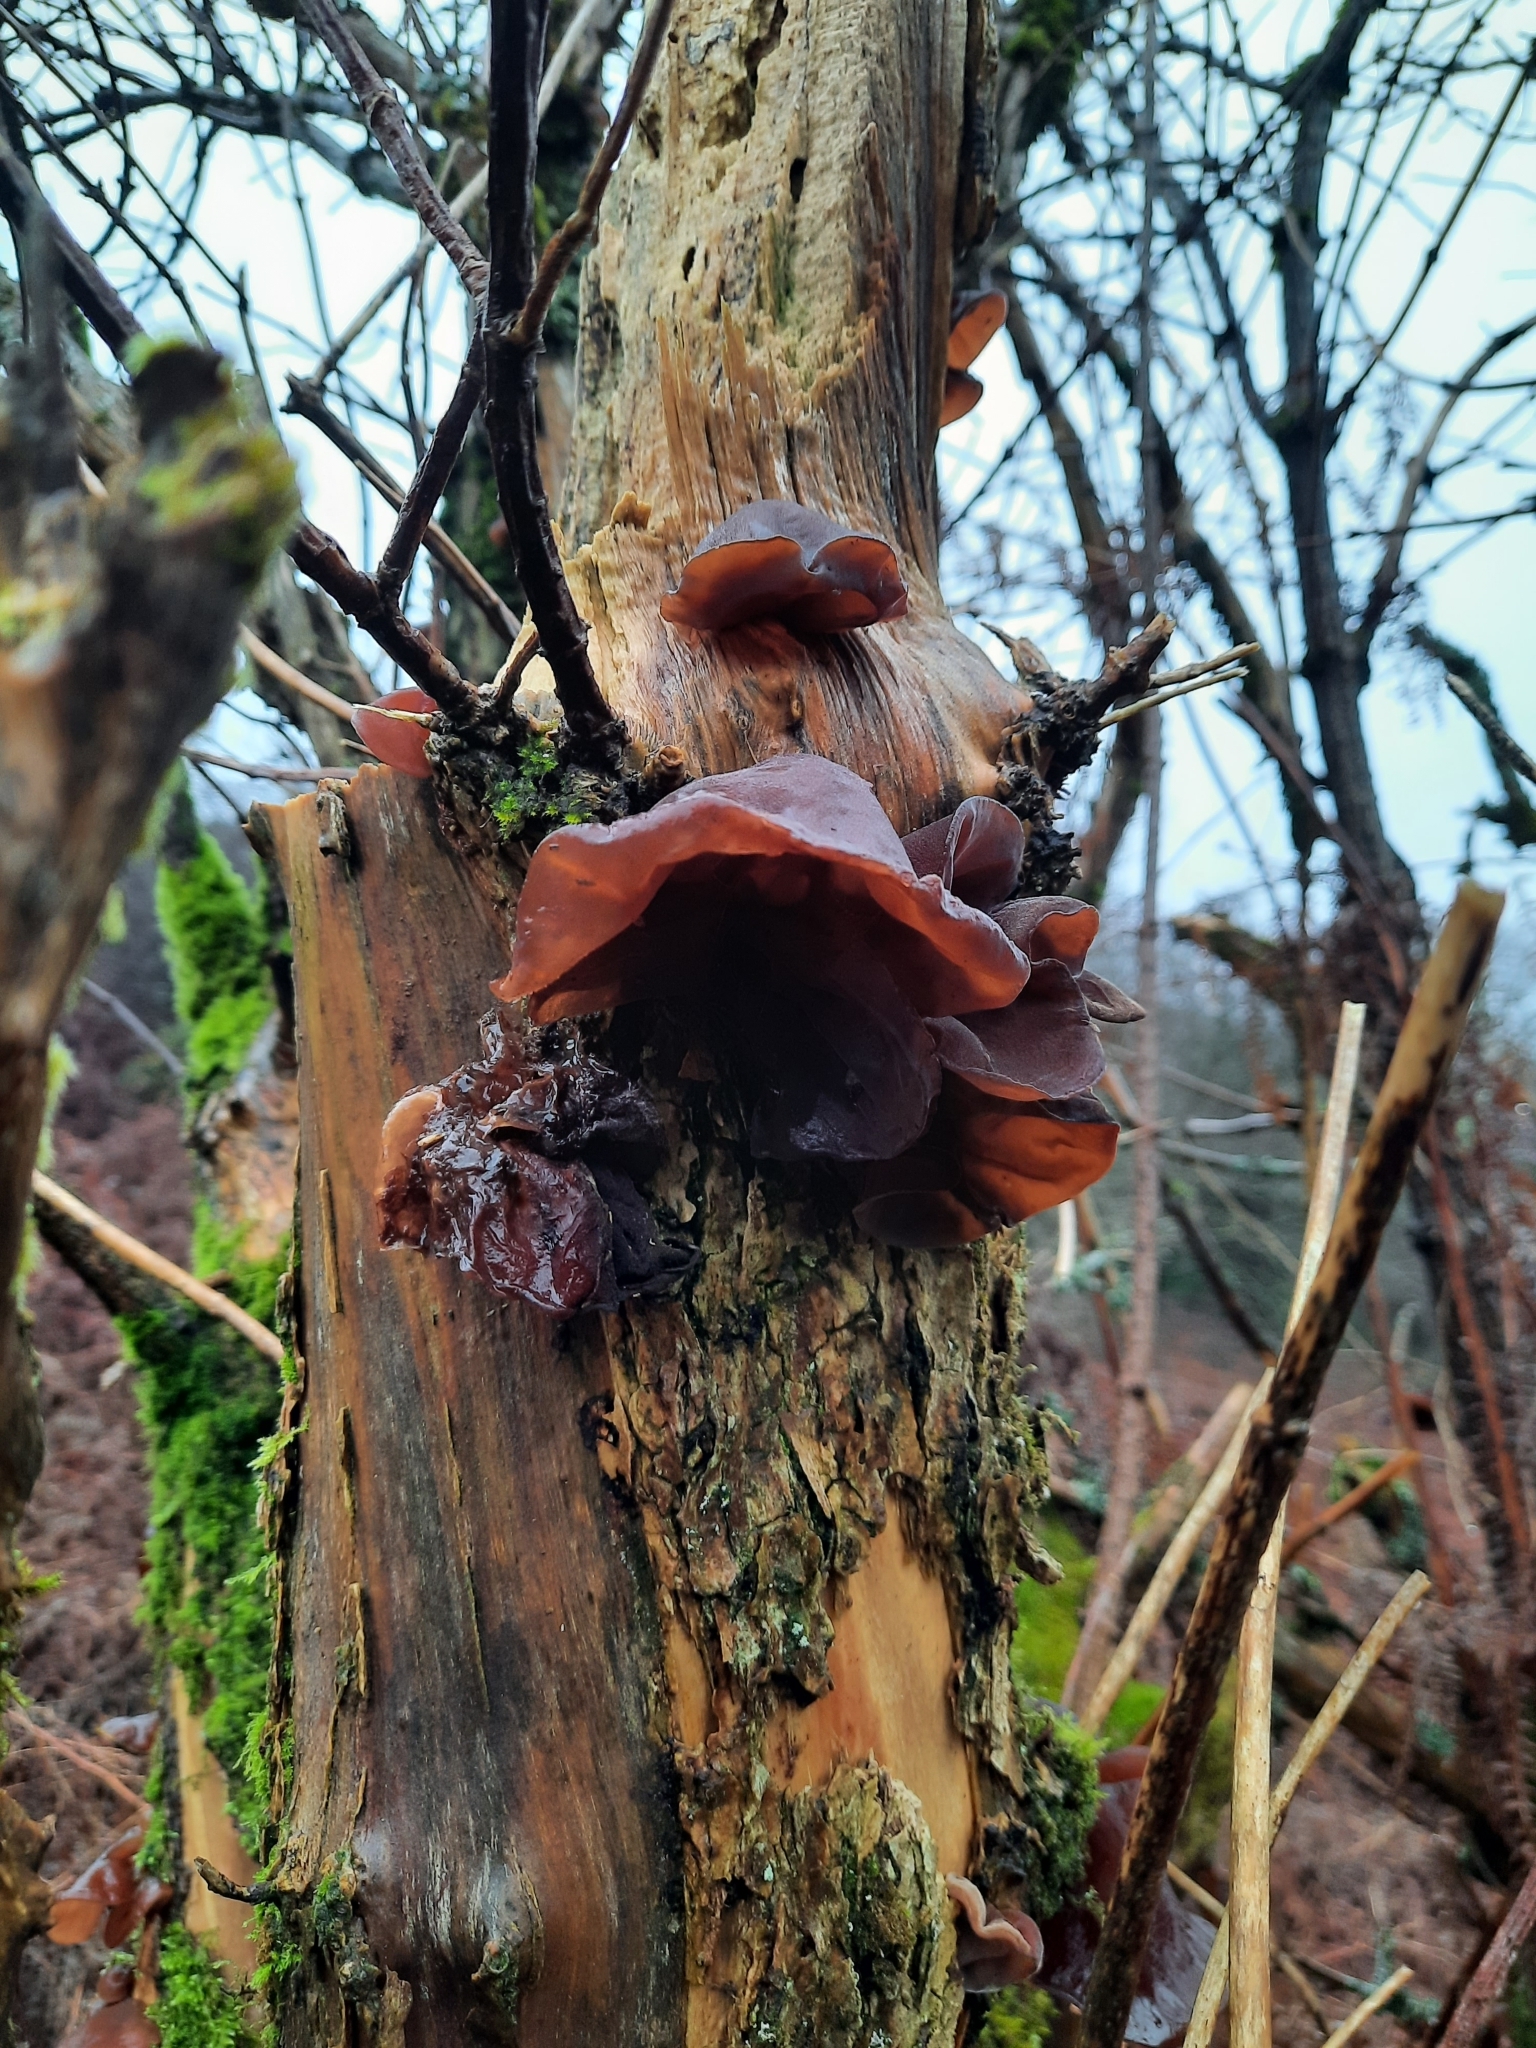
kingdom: Fungi
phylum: Basidiomycota
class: Agaricomycetes
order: Auriculariales
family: Auriculariaceae
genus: Auricularia
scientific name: Auricularia auricula-judae
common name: Jelly ear
